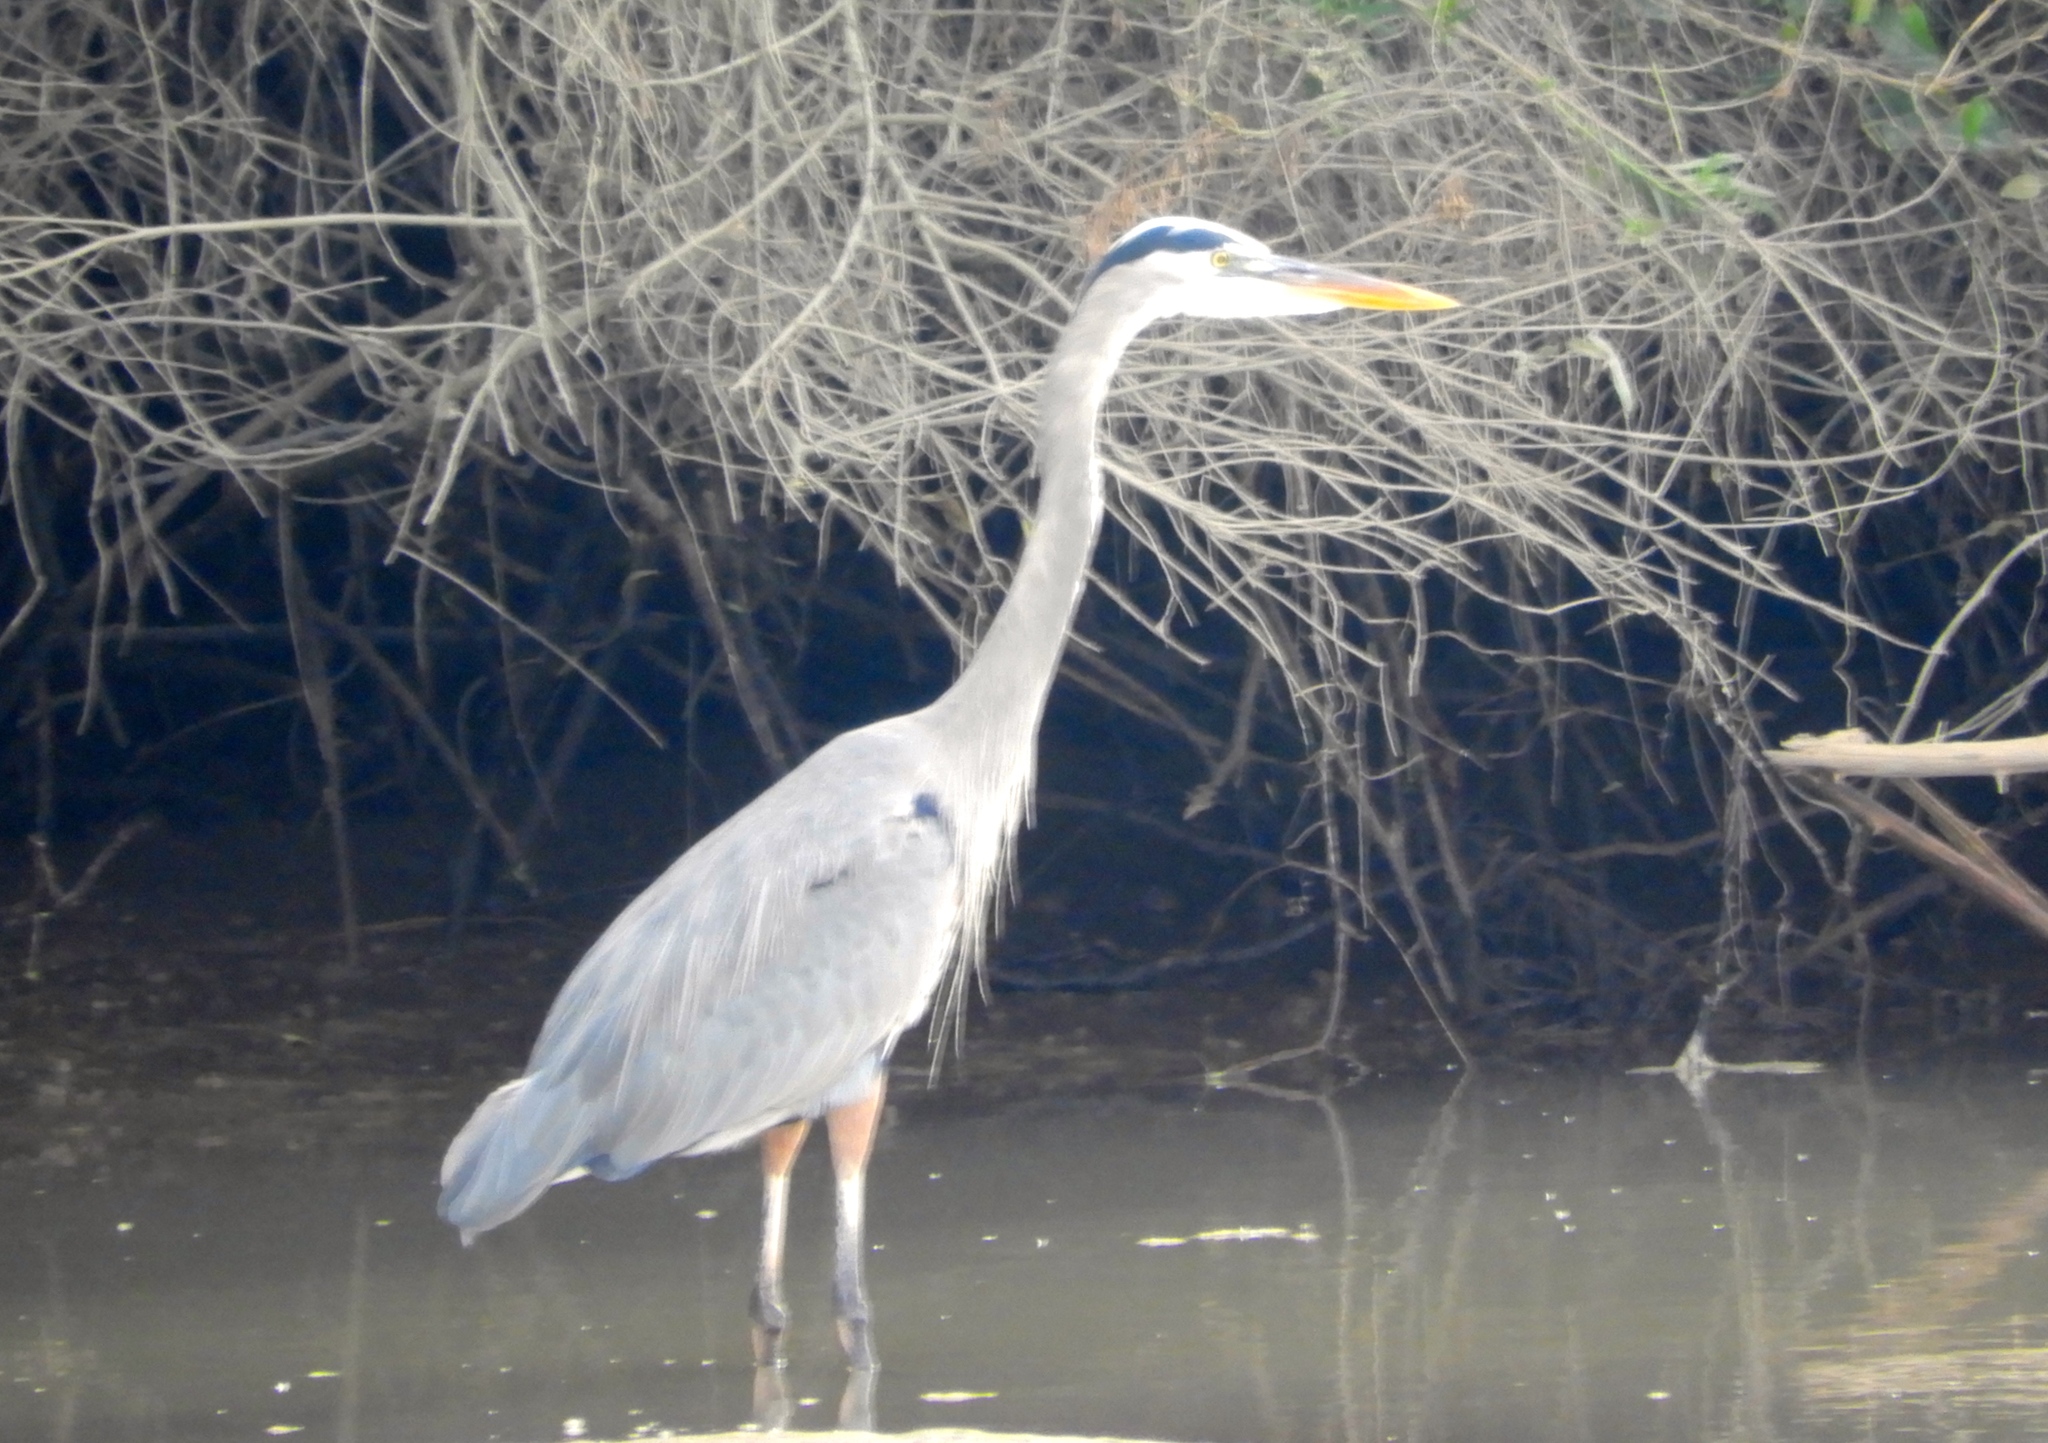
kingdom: Animalia
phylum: Chordata
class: Aves
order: Pelecaniformes
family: Ardeidae
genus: Ardea
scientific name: Ardea herodias
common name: Great blue heron
